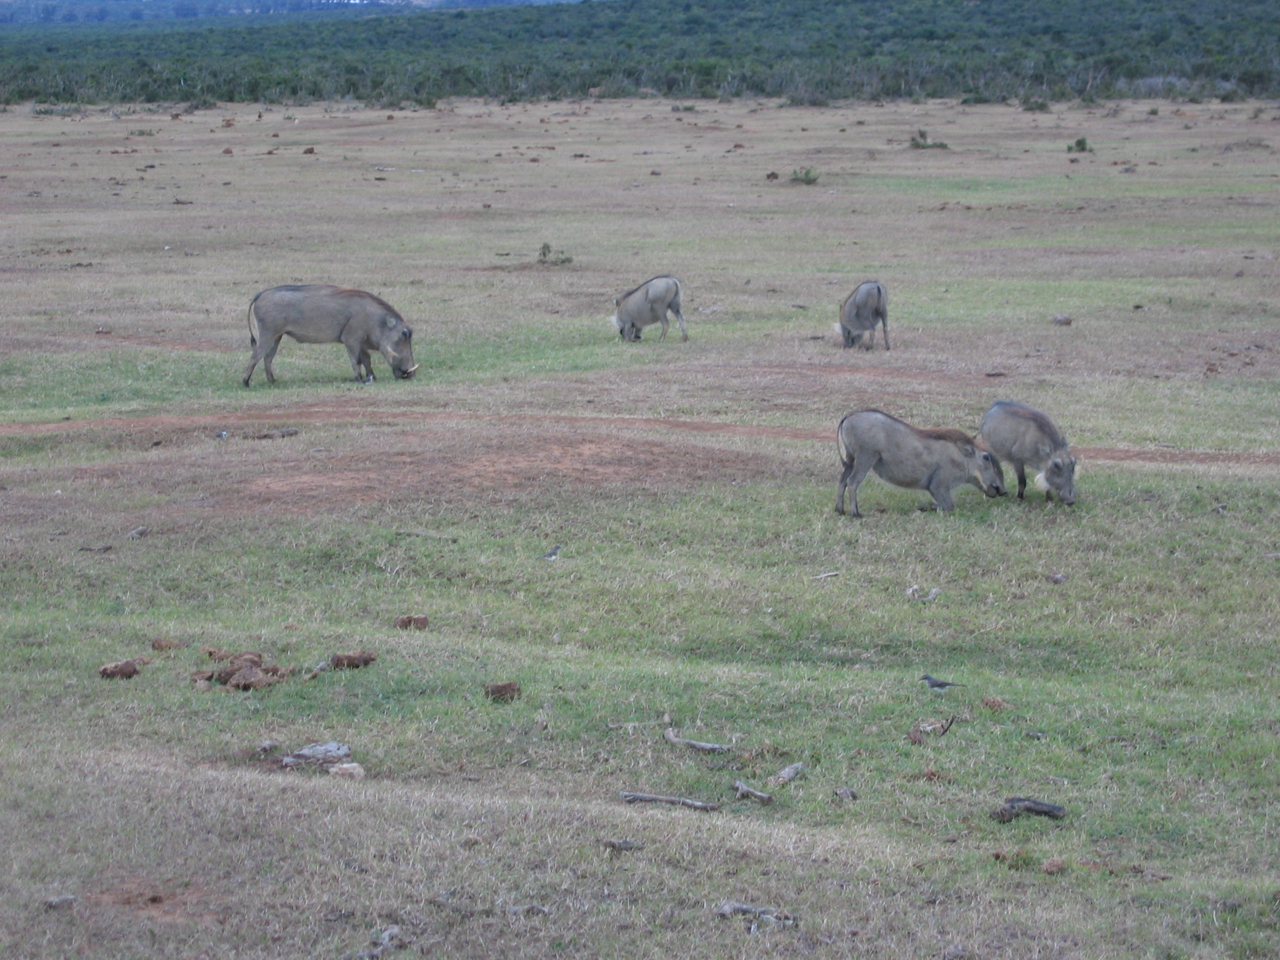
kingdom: Animalia
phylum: Chordata
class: Mammalia
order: Artiodactyla
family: Suidae
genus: Phacochoerus
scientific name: Phacochoerus africanus
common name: Common warthog
